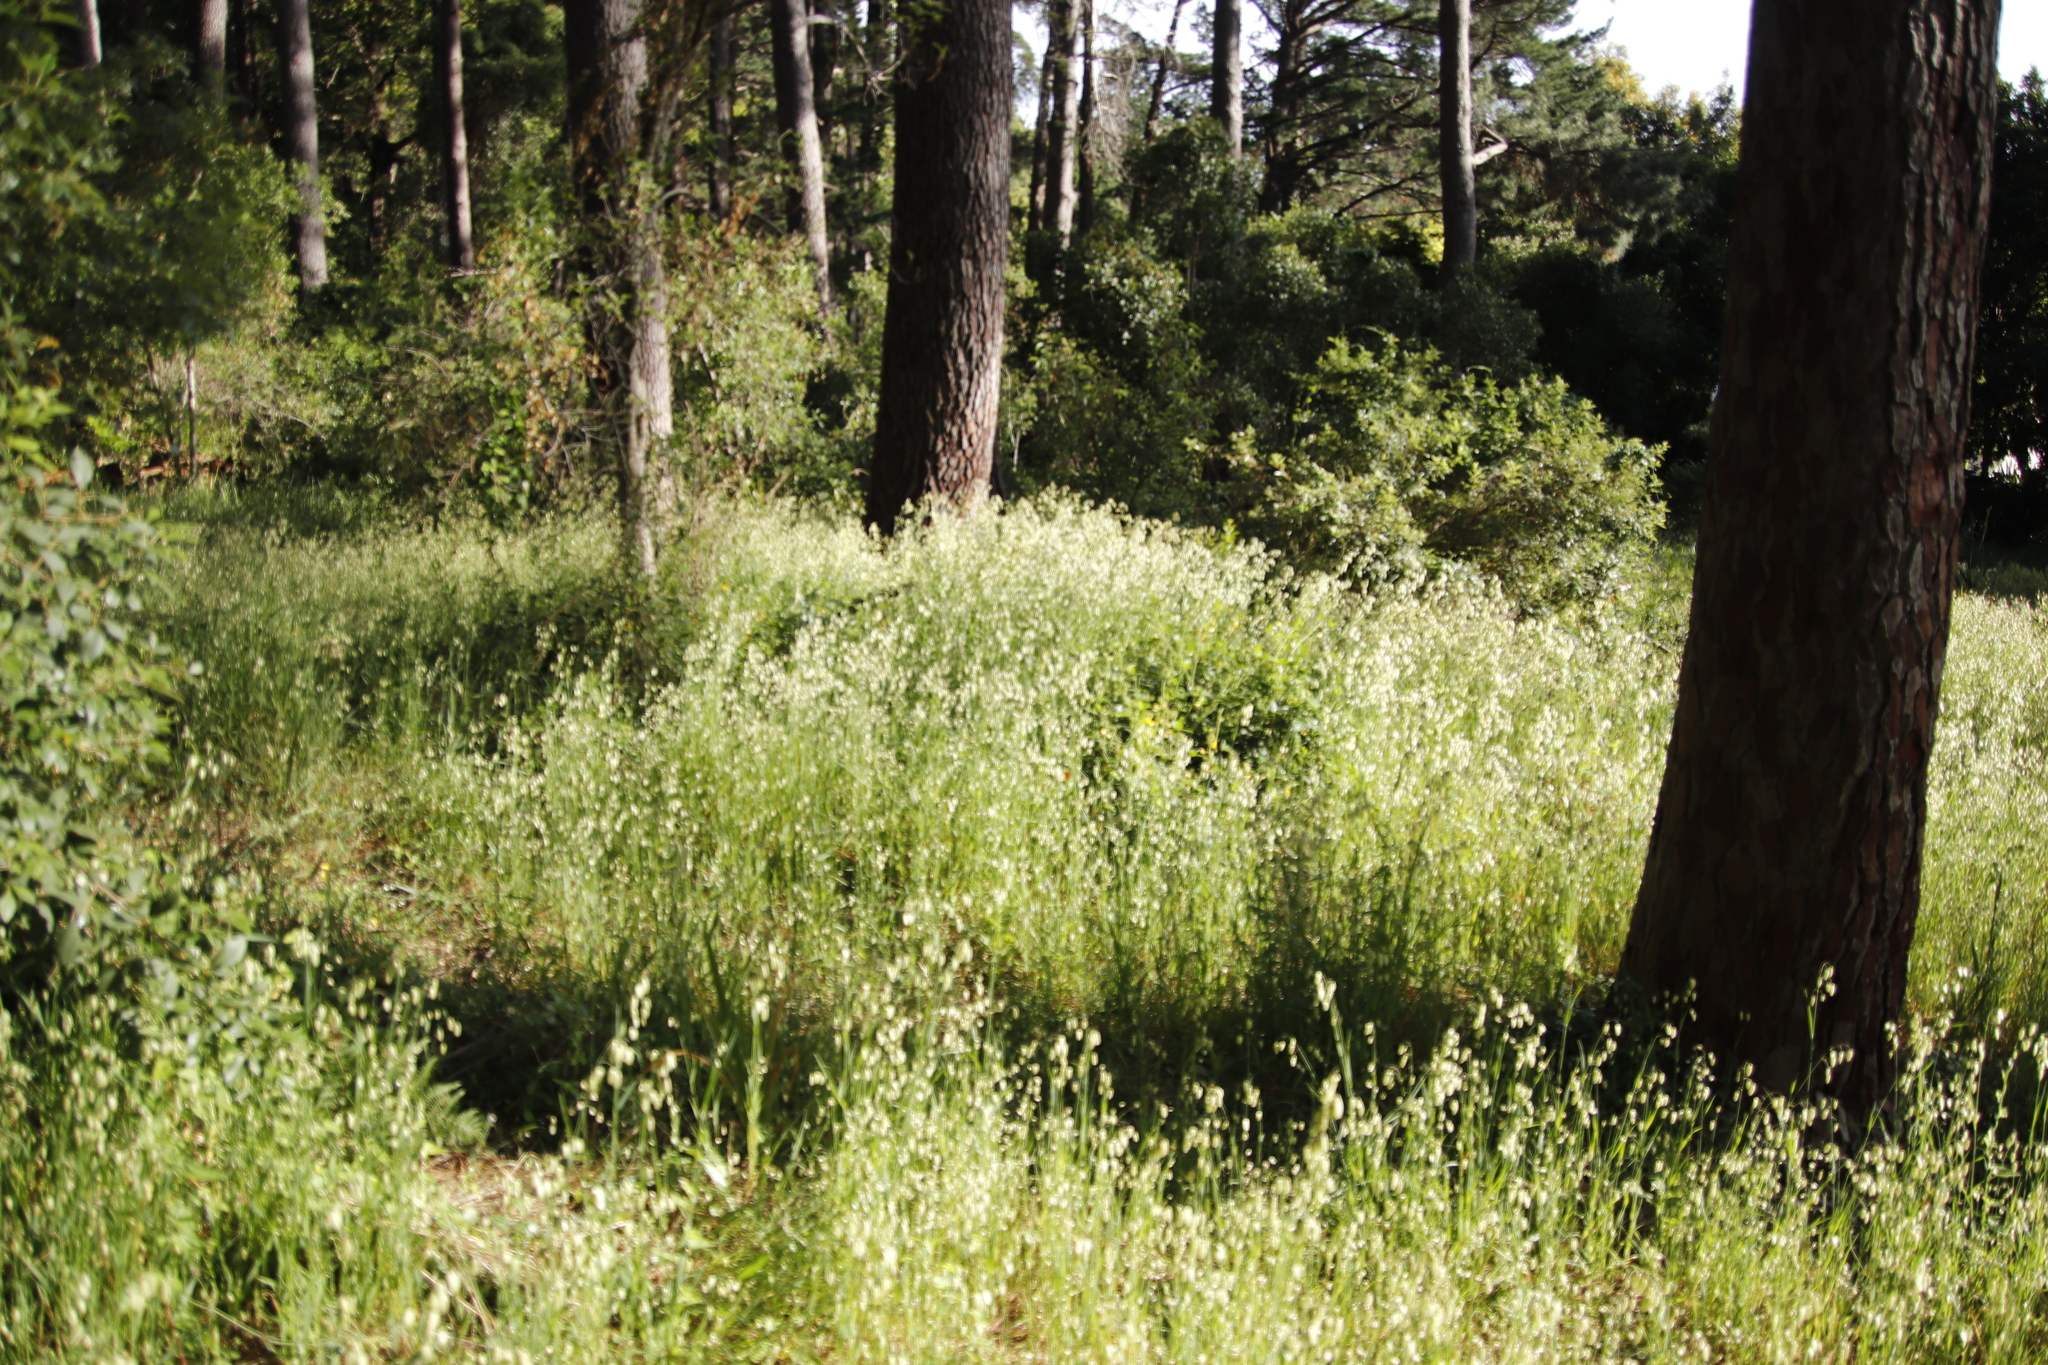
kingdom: Plantae
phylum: Tracheophyta
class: Liliopsida
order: Poales
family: Poaceae
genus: Briza
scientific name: Briza maxima
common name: Big quakinggrass
